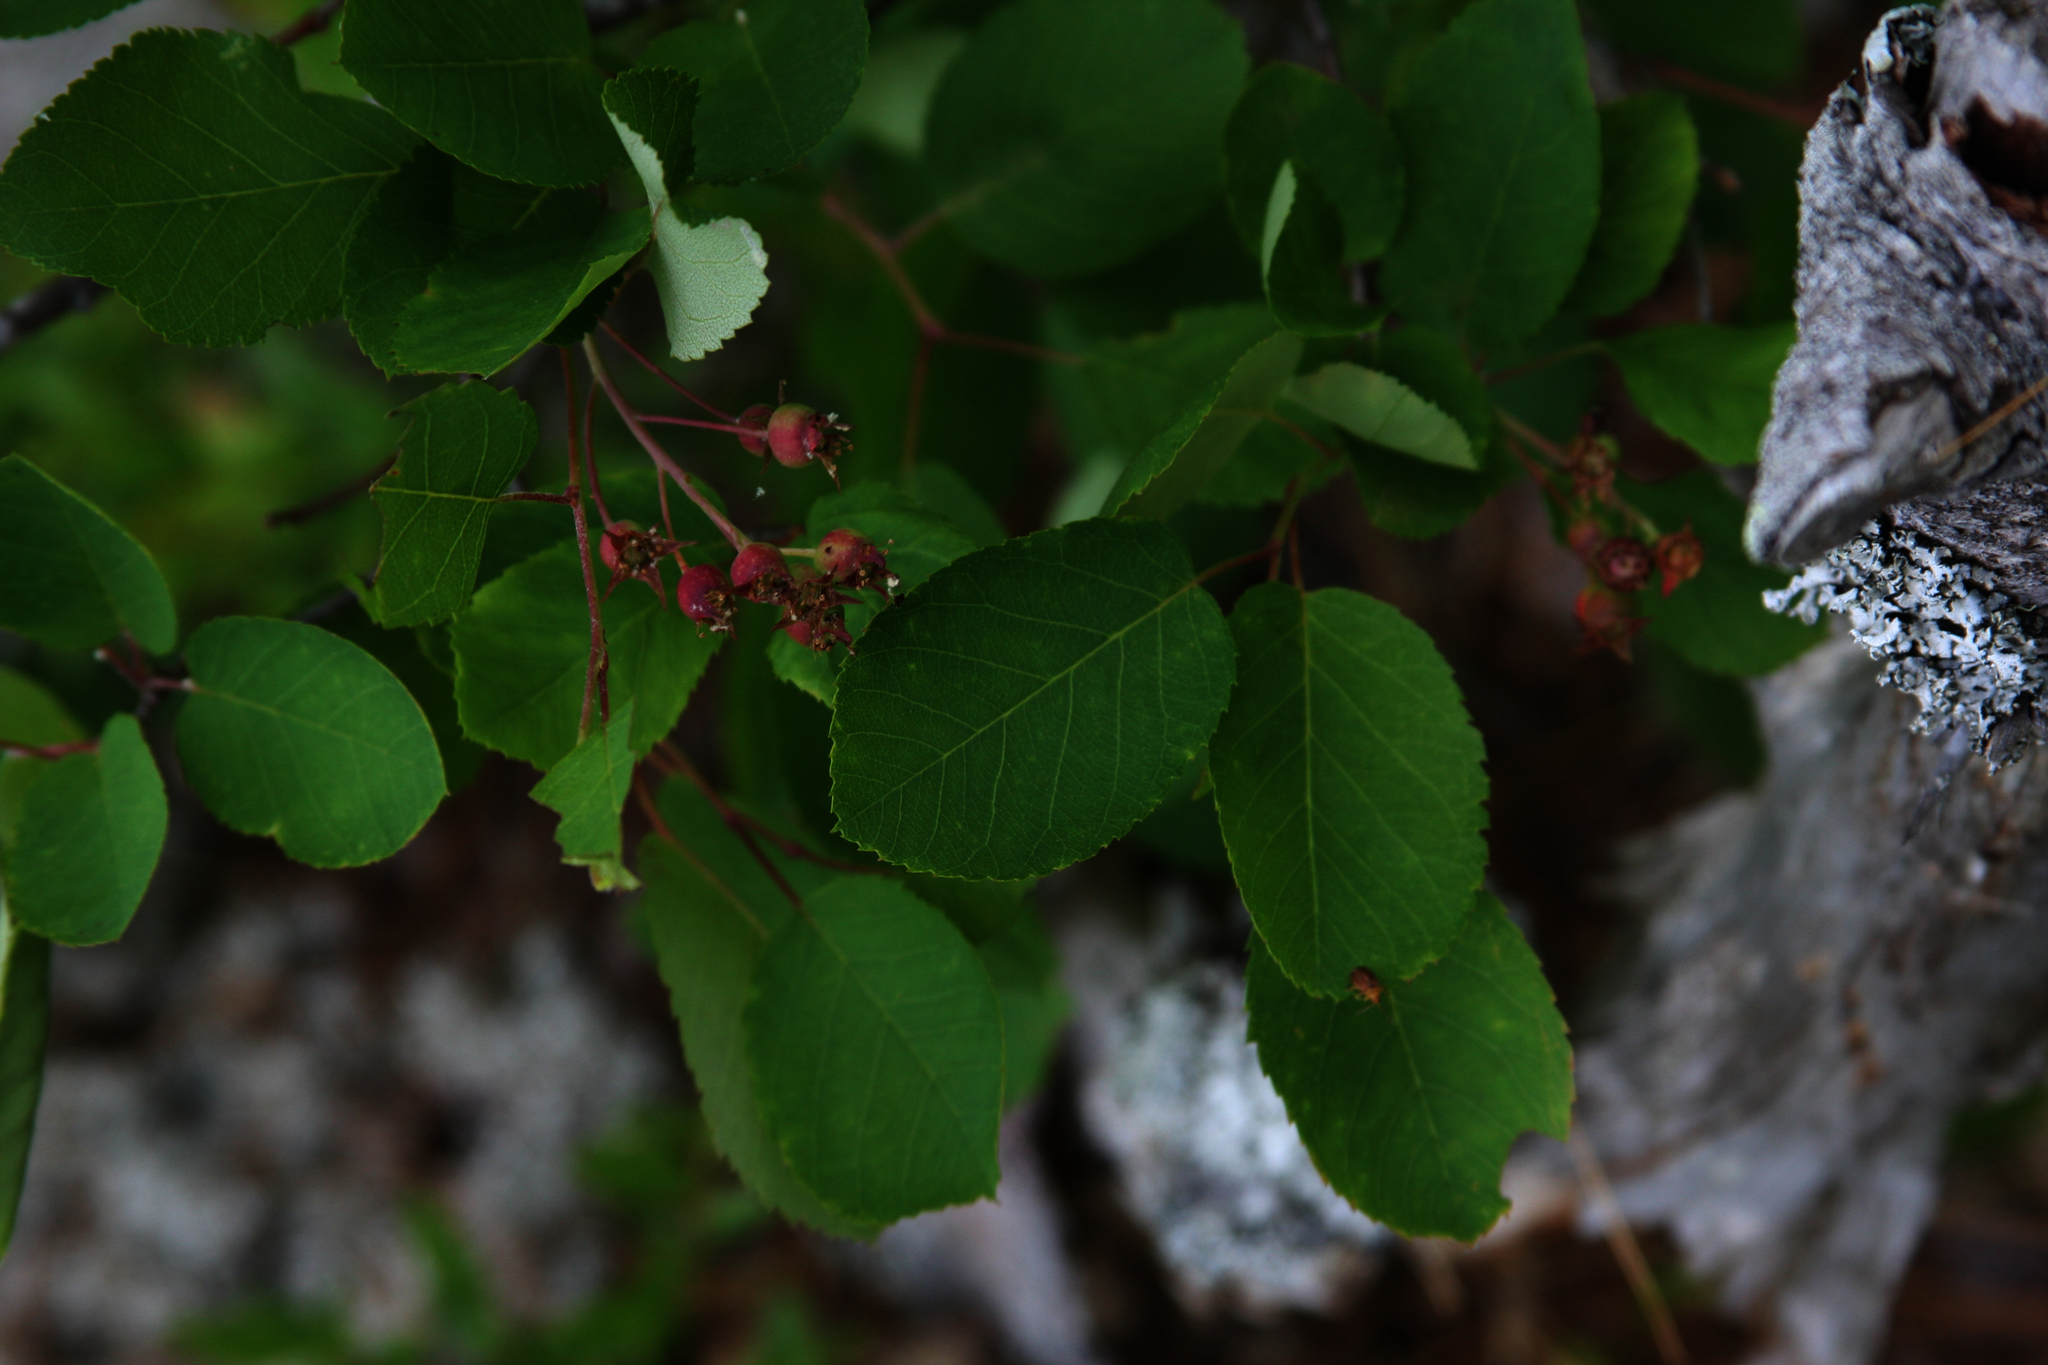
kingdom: Plantae
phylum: Tracheophyta
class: Magnoliopsida
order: Rosales
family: Rosaceae
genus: Amelanchier
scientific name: Amelanchier arborea
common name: Downy serviceberry
